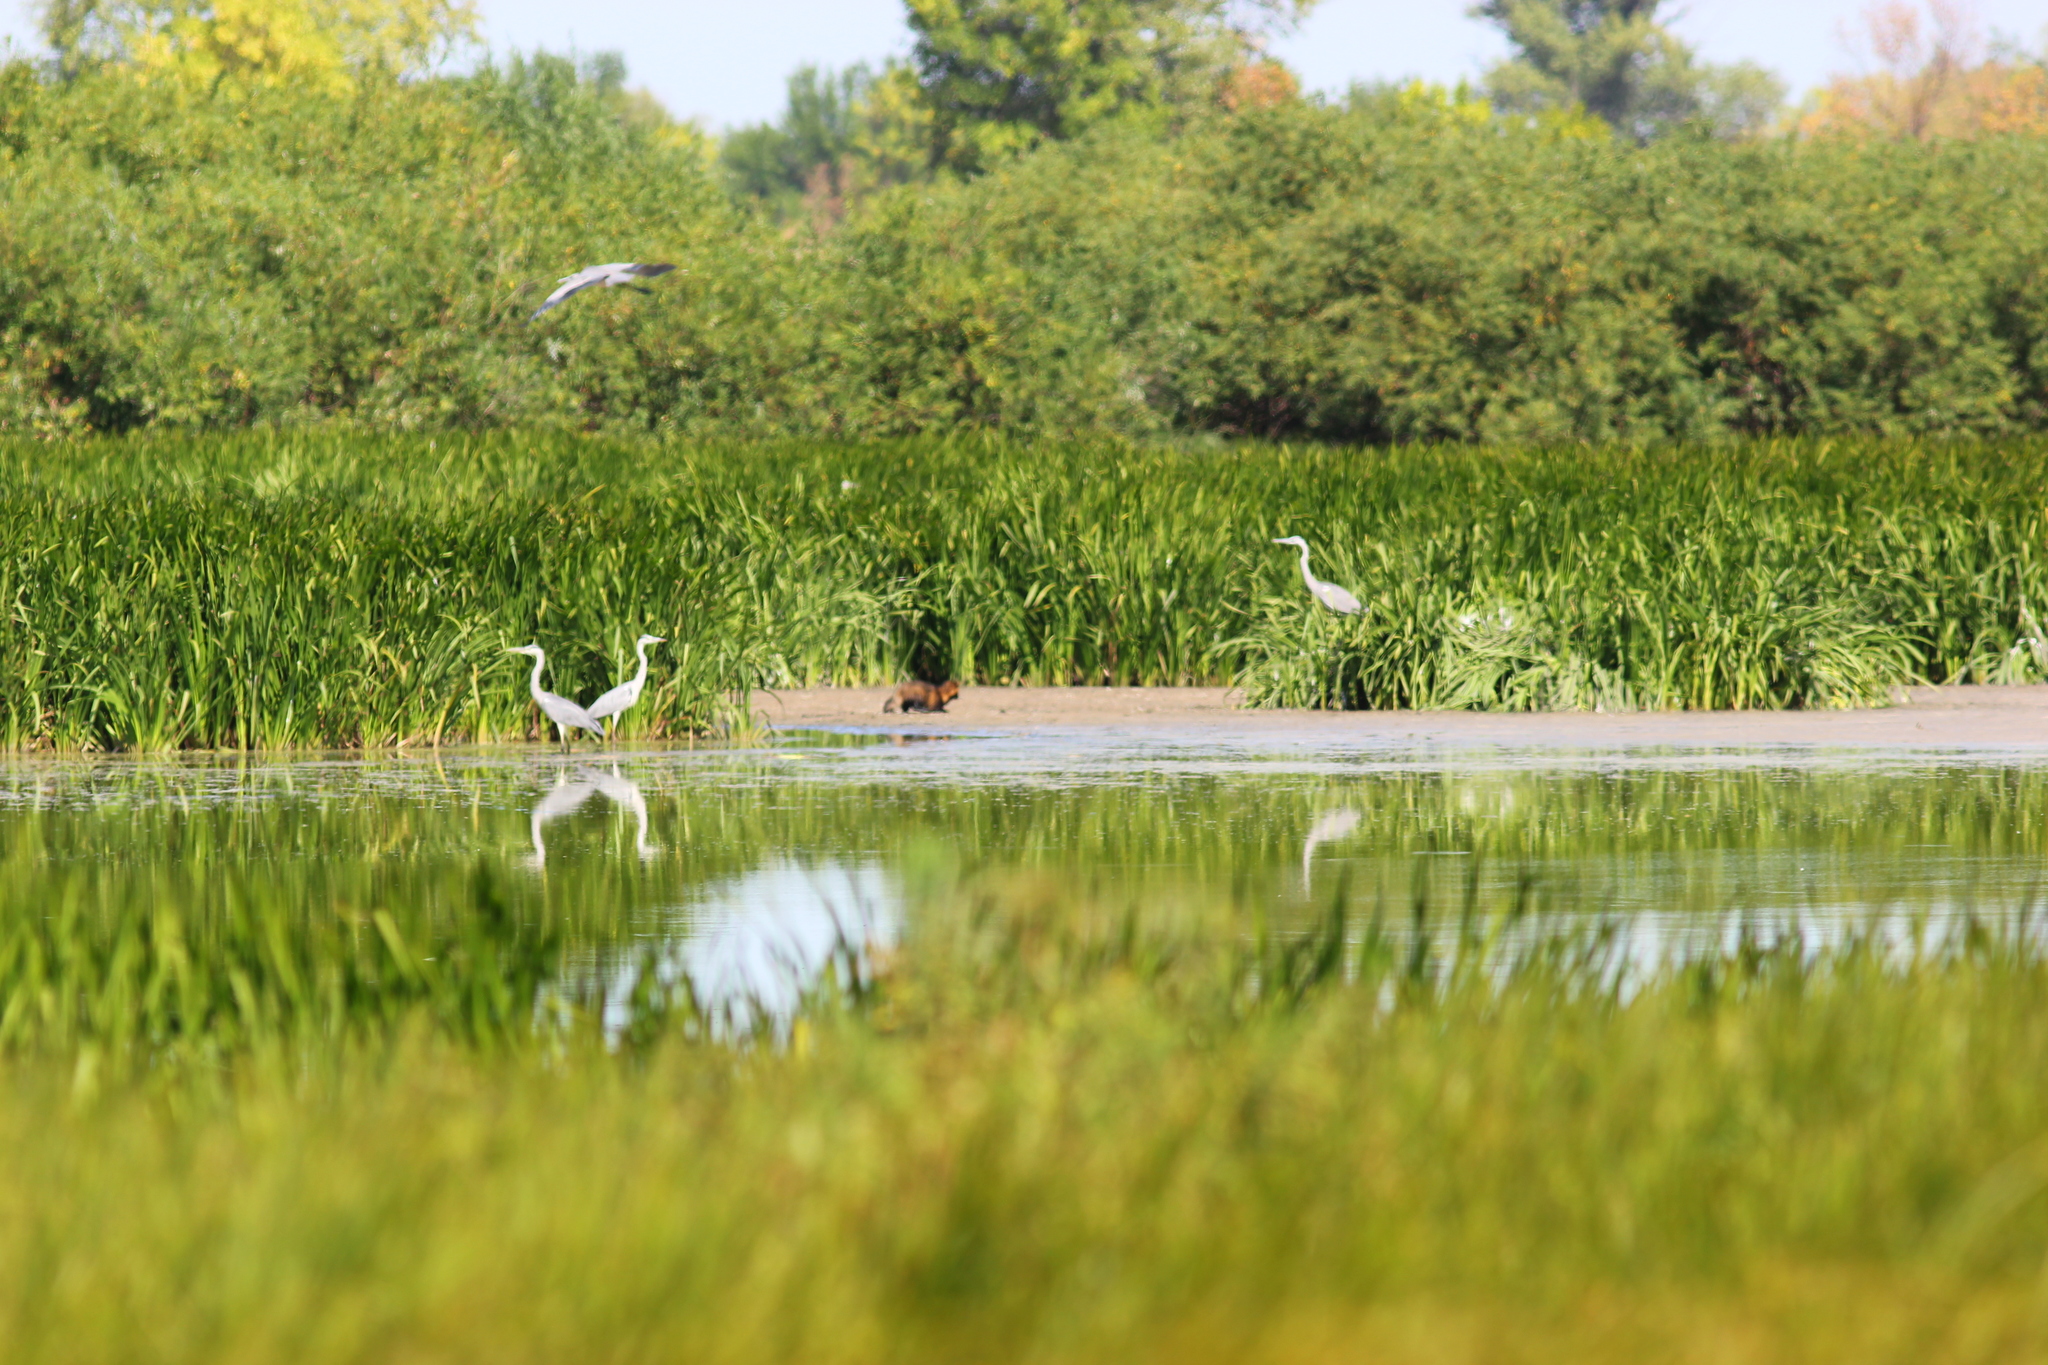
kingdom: Animalia
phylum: Chordata
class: Mammalia
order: Carnivora
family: Canidae
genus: Nyctereutes
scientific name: Nyctereutes procyonoides
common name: Raccoon dog
